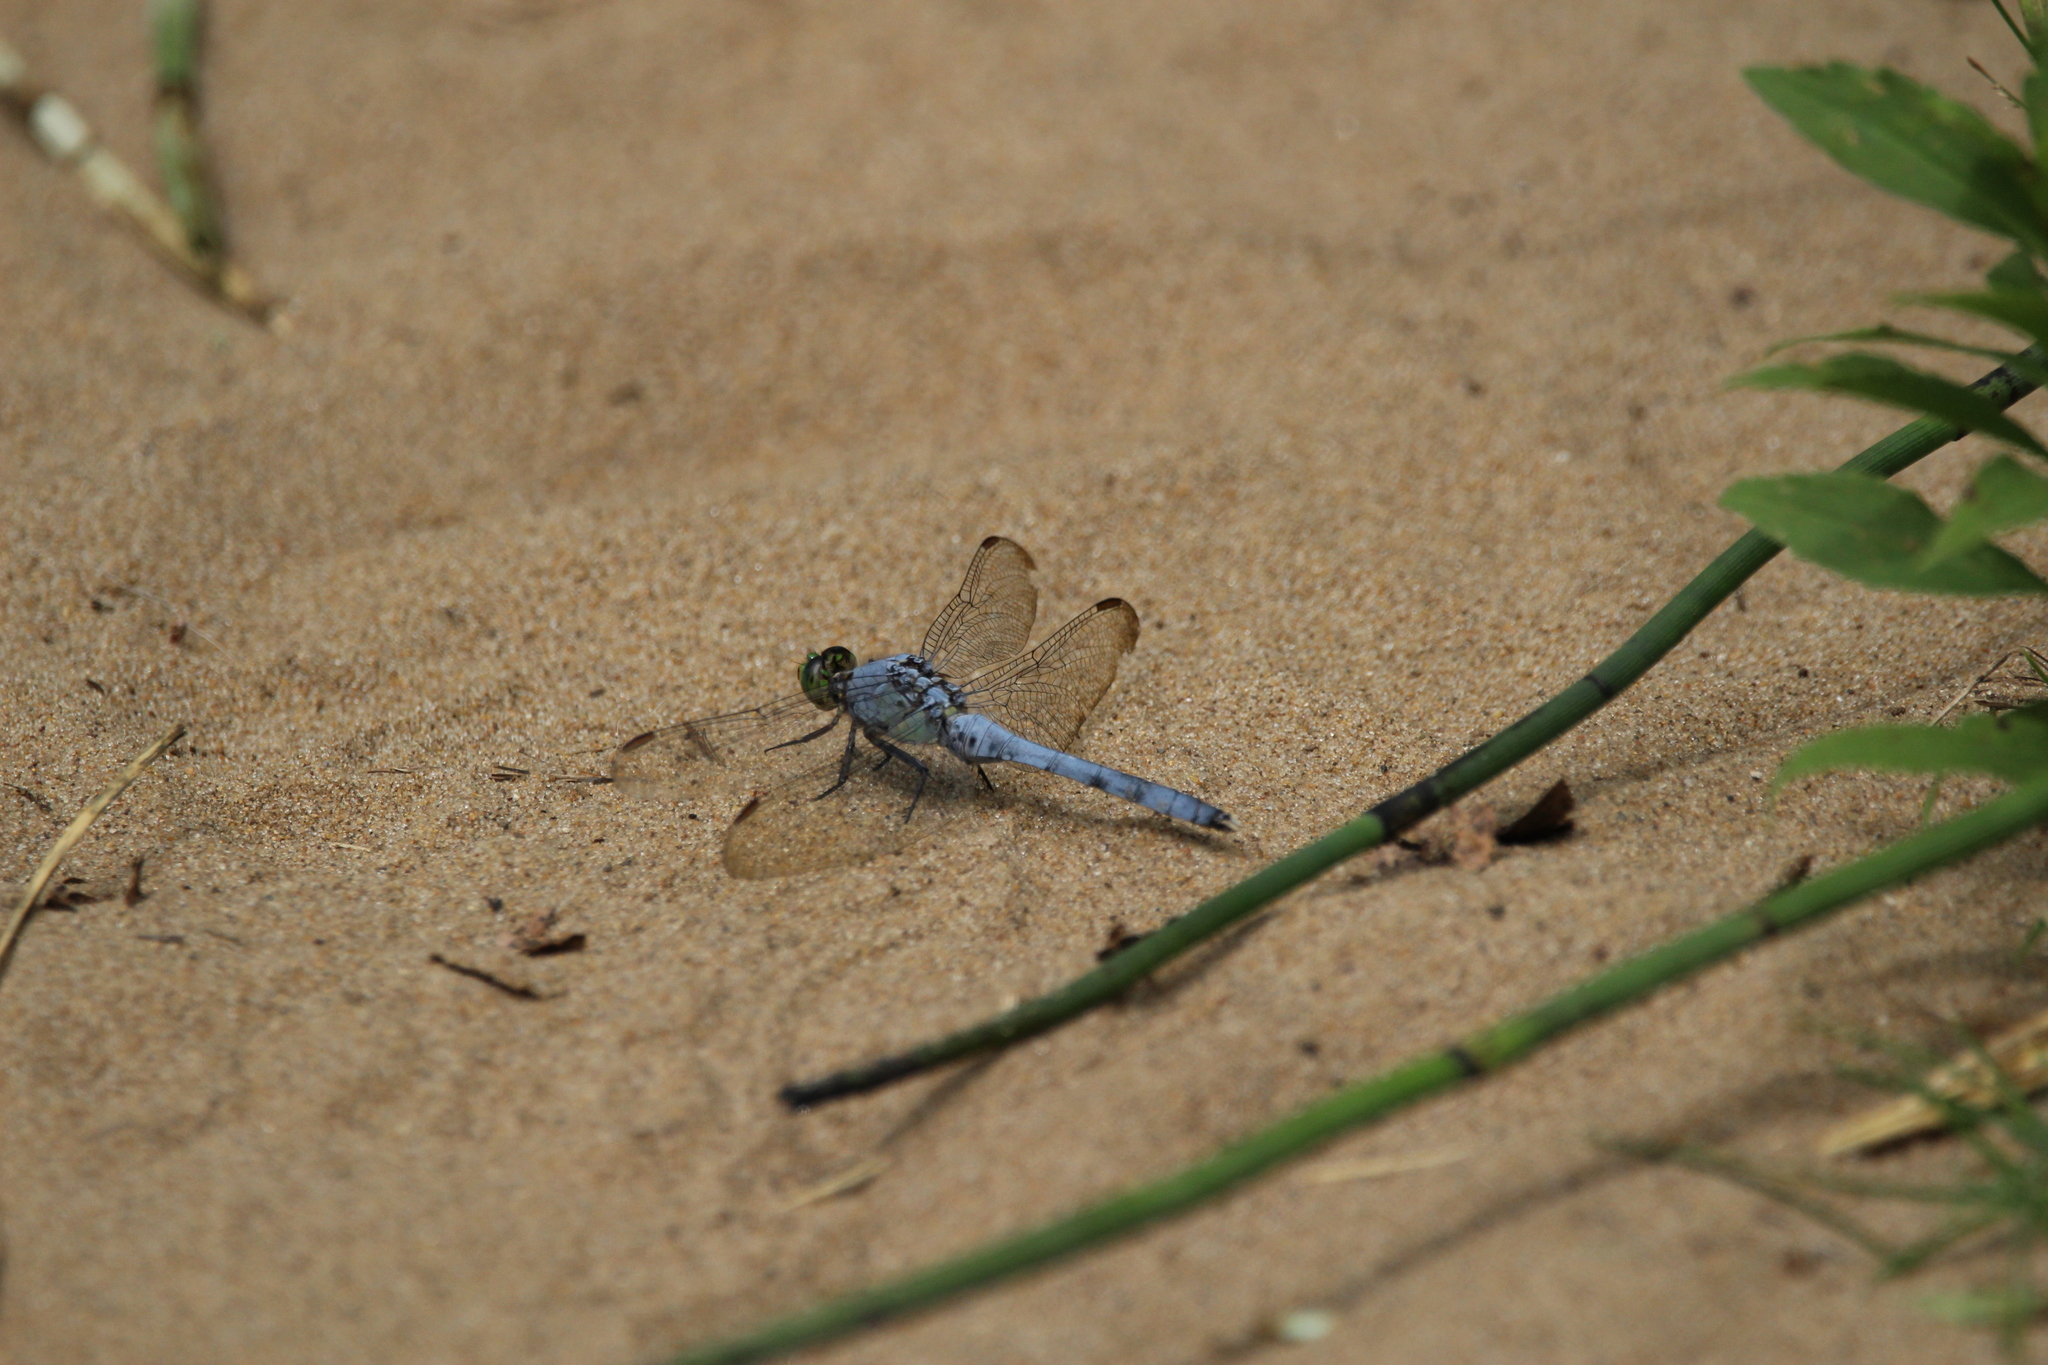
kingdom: Animalia
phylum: Arthropoda
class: Insecta
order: Odonata
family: Libellulidae
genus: Erythemis
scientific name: Erythemis simplicicollis
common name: Eastern pondhawk
